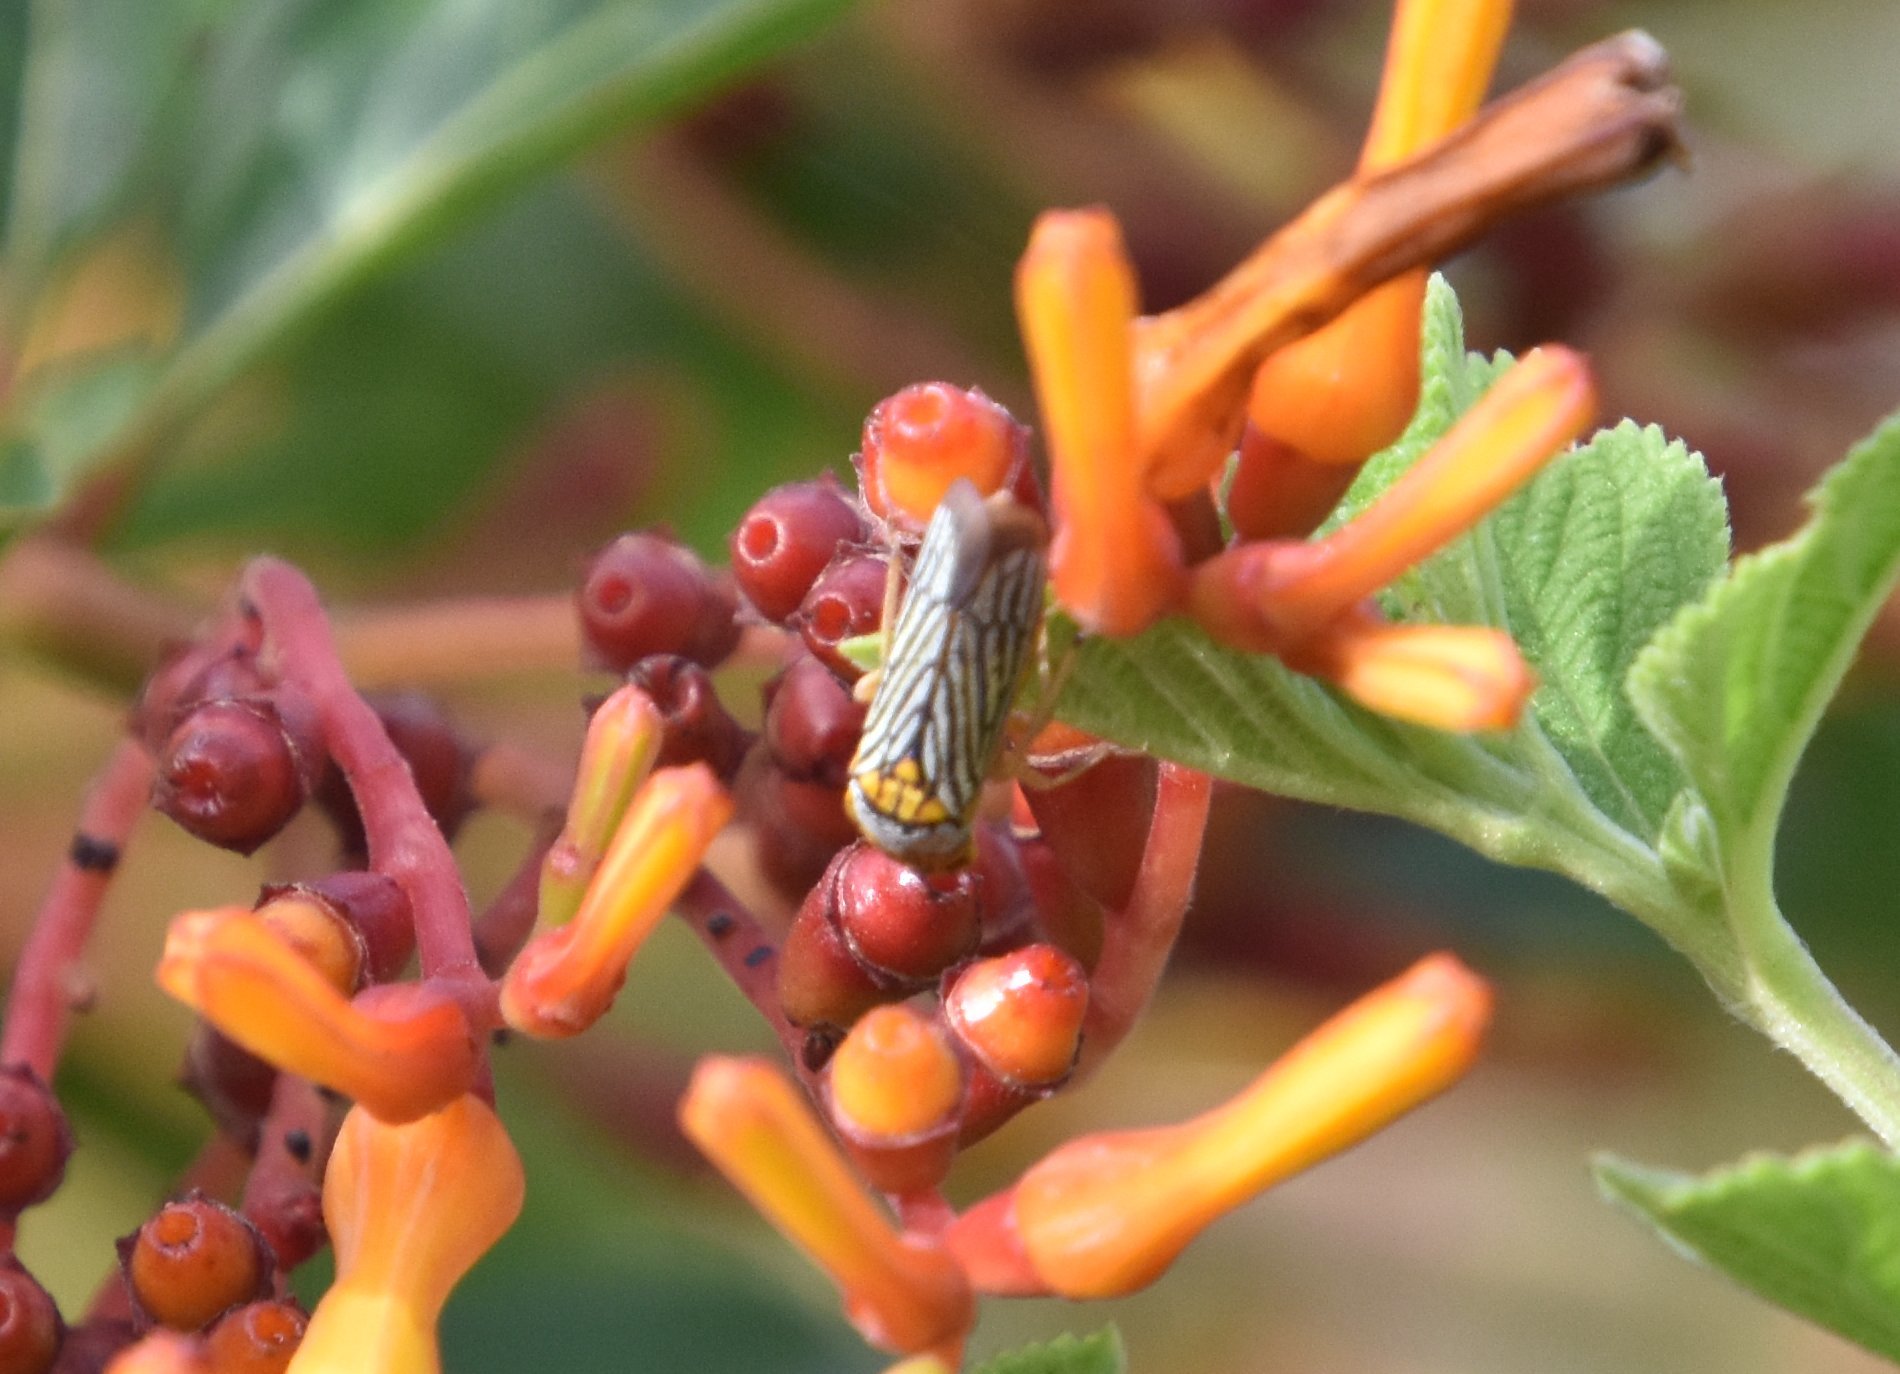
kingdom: Animalia
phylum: Arthropoda
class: Insecta
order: Hemiptera
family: Cicadellidae
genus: Oncometopia
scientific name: Oncometopia nigricans
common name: Black-winged sharpshooter
